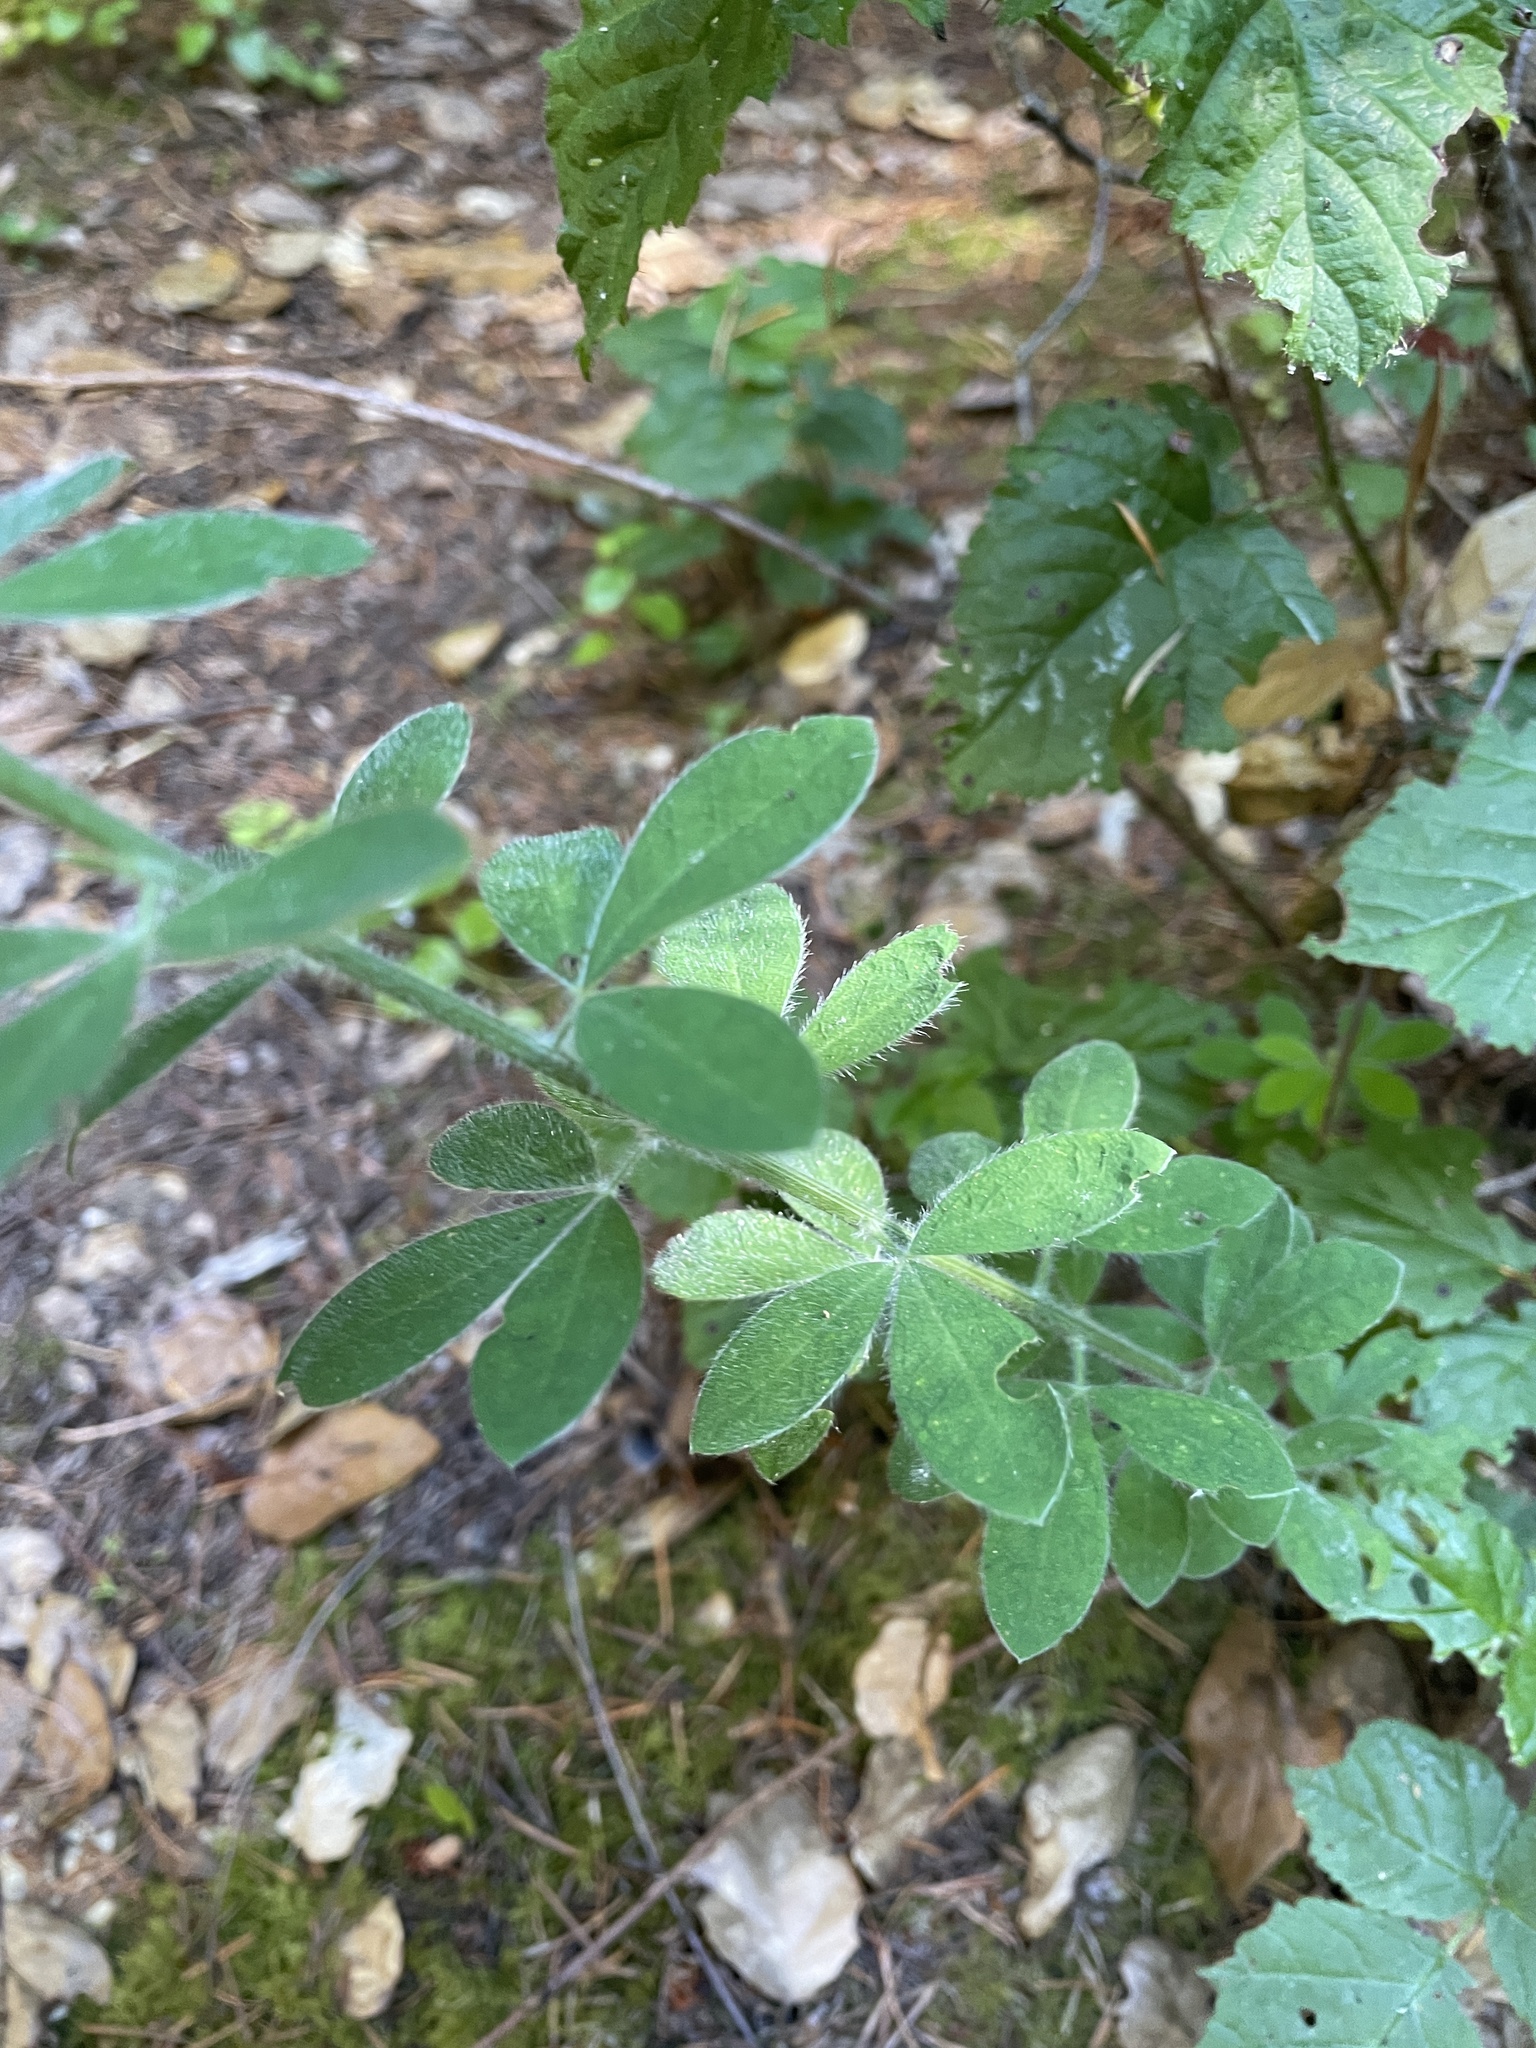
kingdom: Plantae
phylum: Tracheophyta
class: Magnoliopsida
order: Fabales
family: Fabaceae
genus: Genista
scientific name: Genista monspessulana
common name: Montpellier broom
